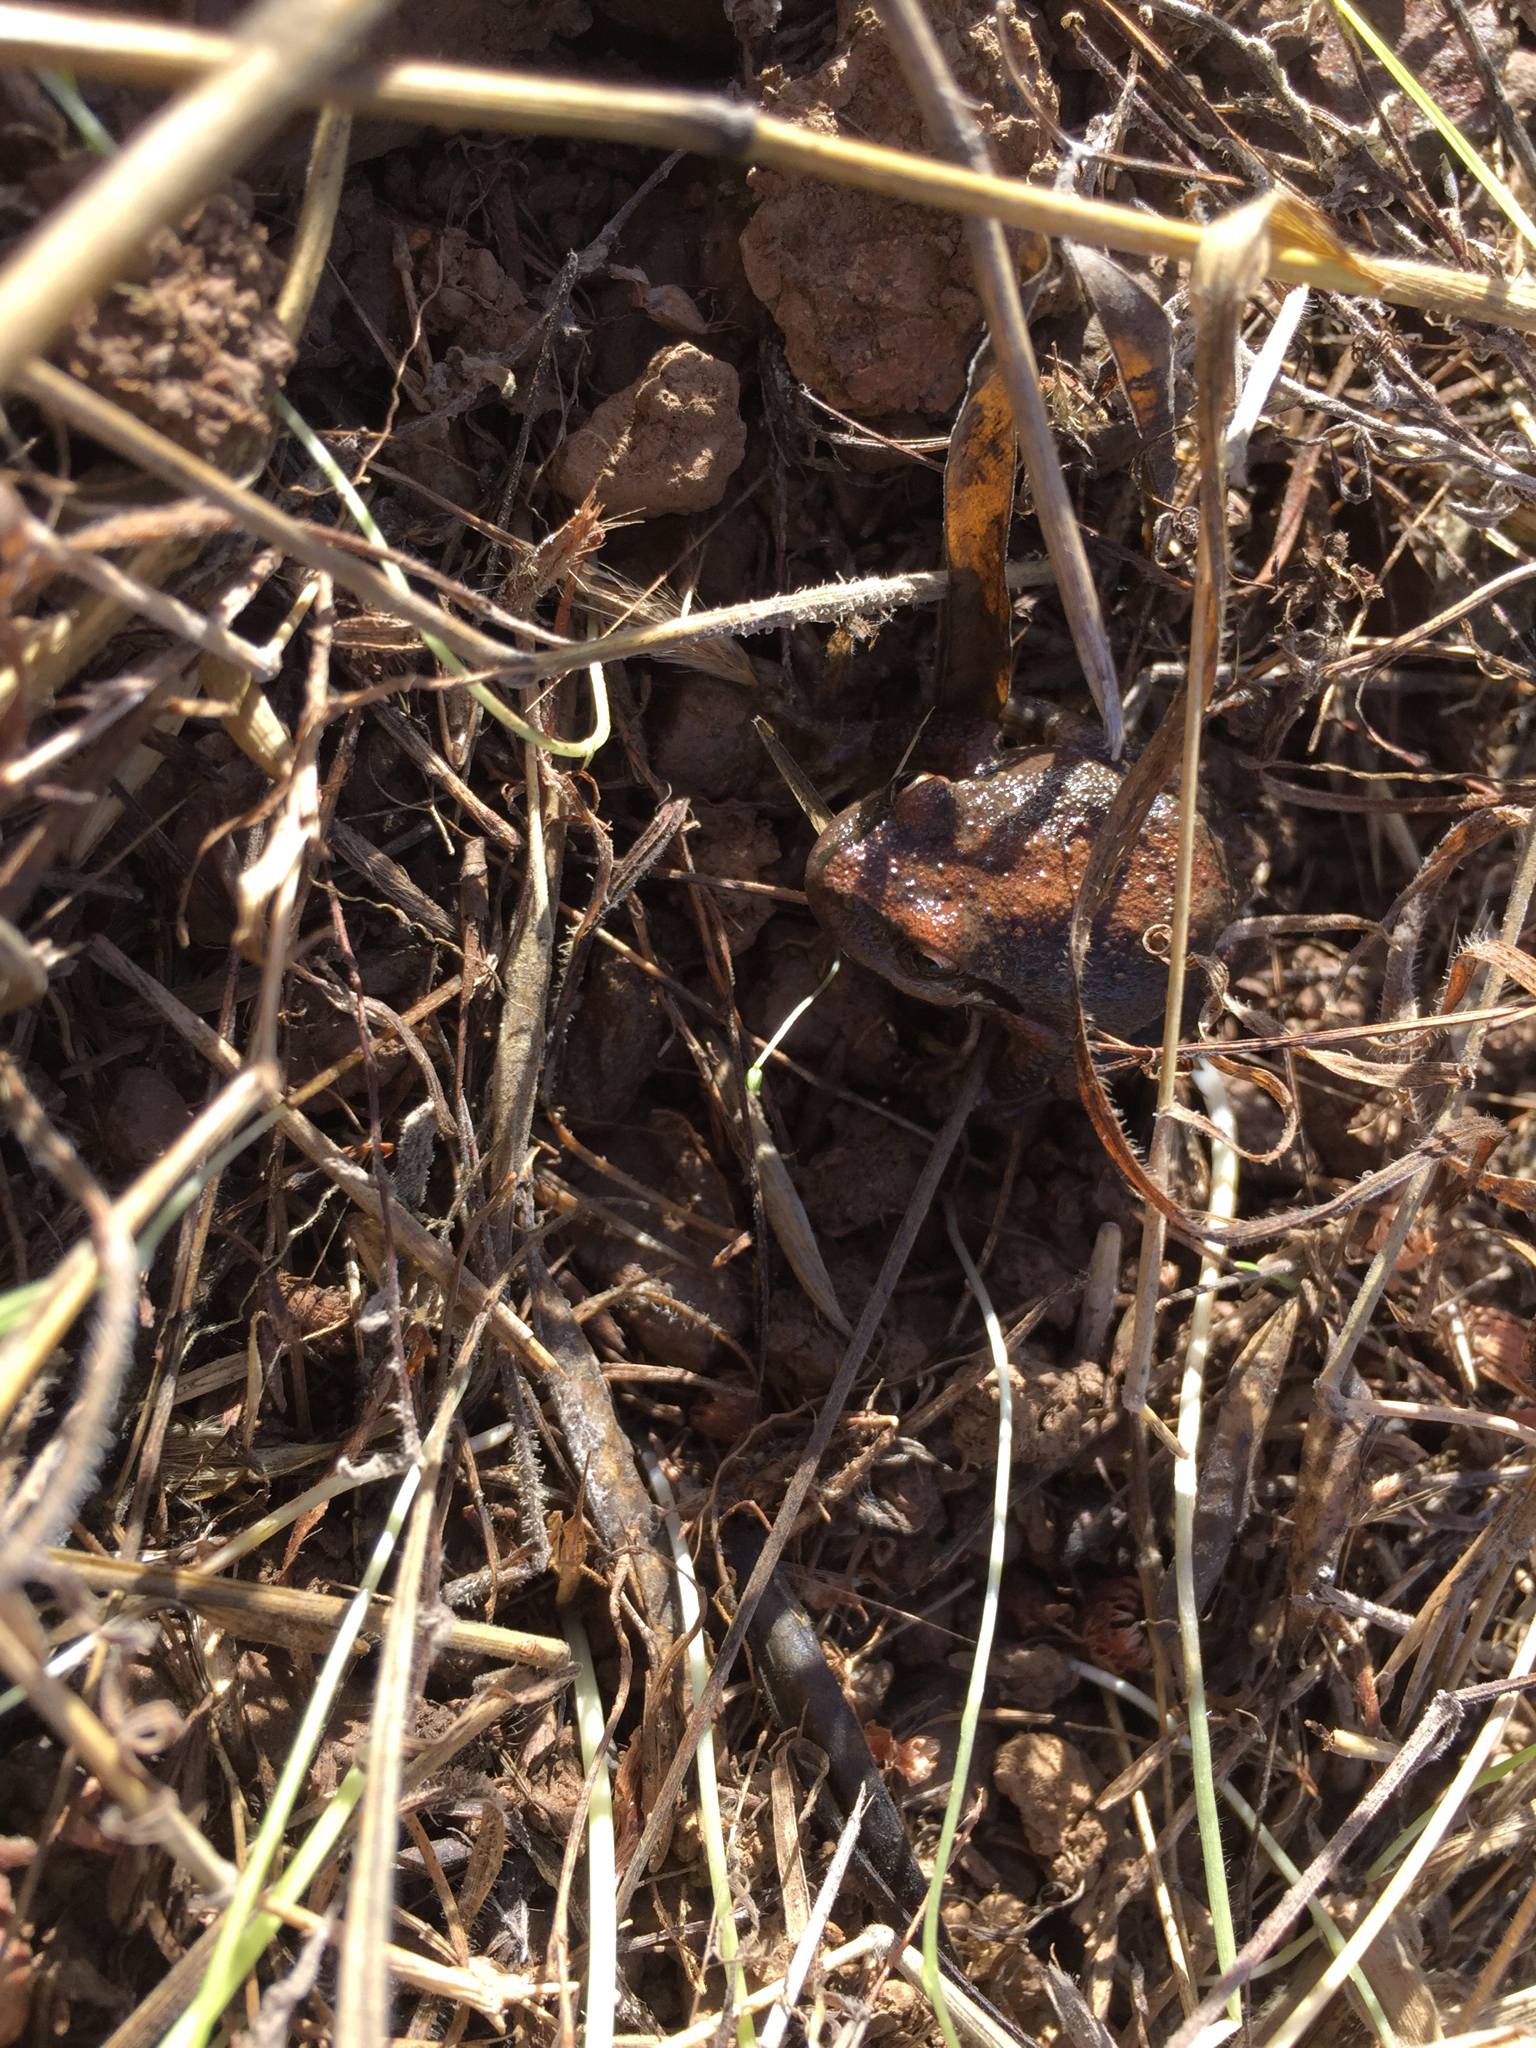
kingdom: Animalia
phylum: Chordata
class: Amphibia
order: Anura
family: Hylidae
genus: Pseudacris
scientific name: Pseudacris regilla
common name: Pacific chorus frog
